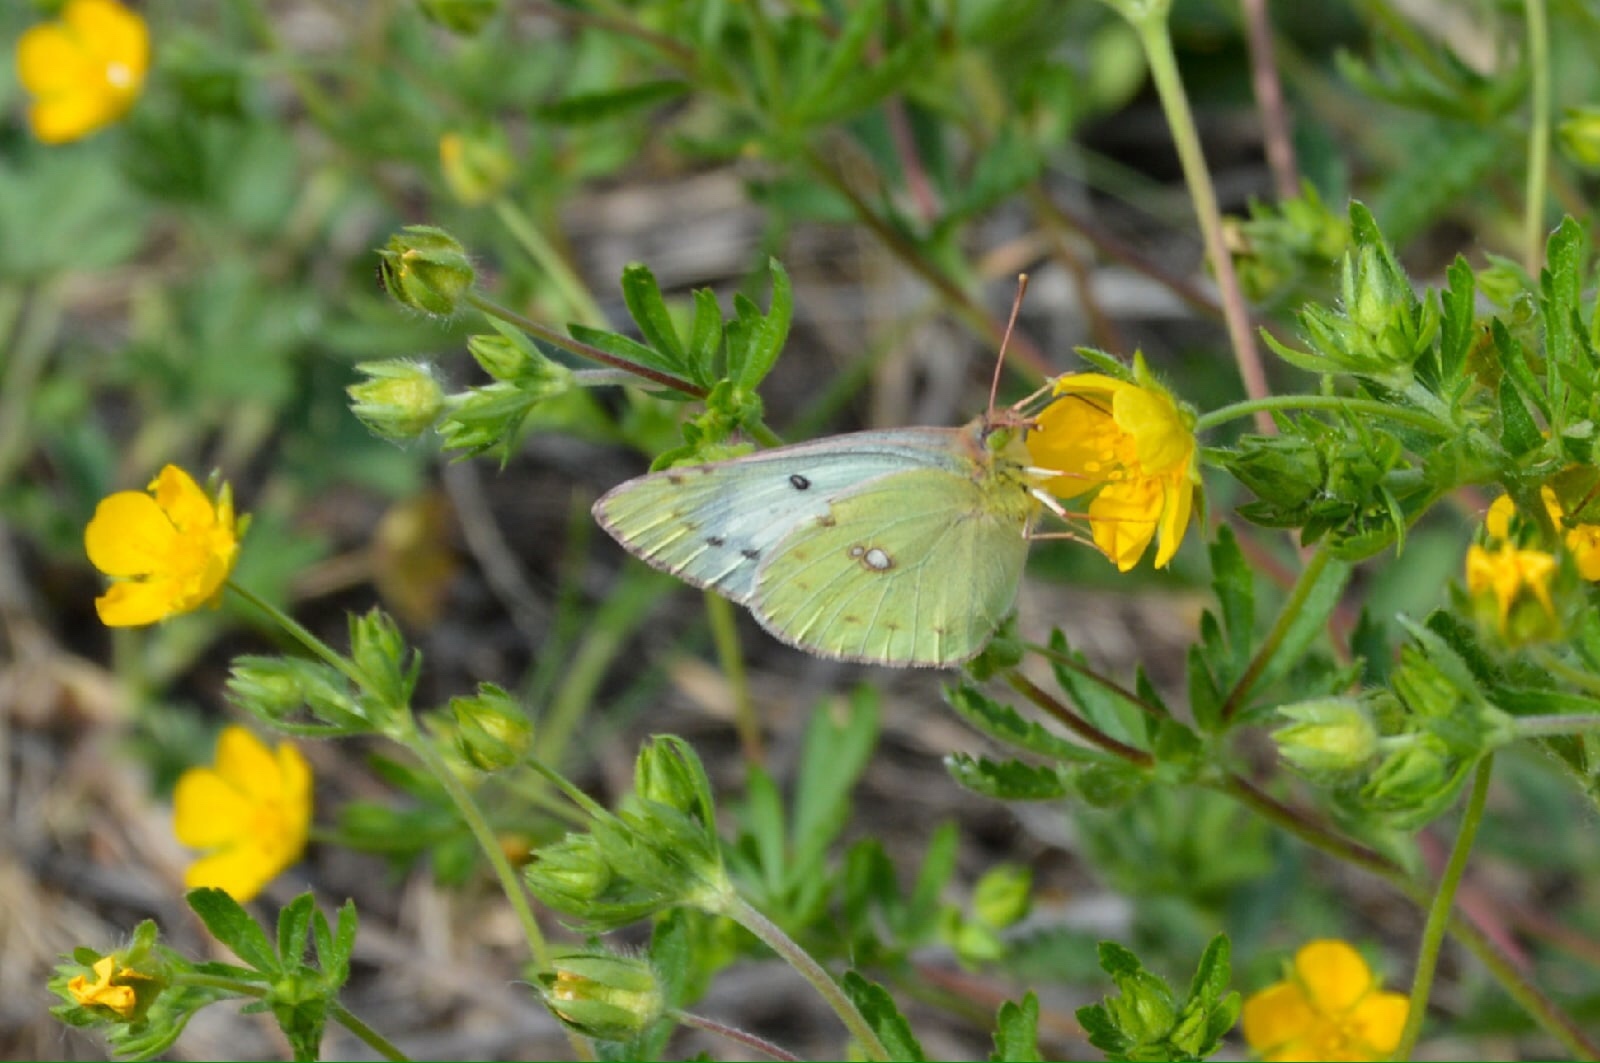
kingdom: Animalia
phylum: Arthropoda
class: Insecta
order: Lepidoptera
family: Pieridae
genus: Colias
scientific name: Colias hyale
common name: Pale clouded yellow
